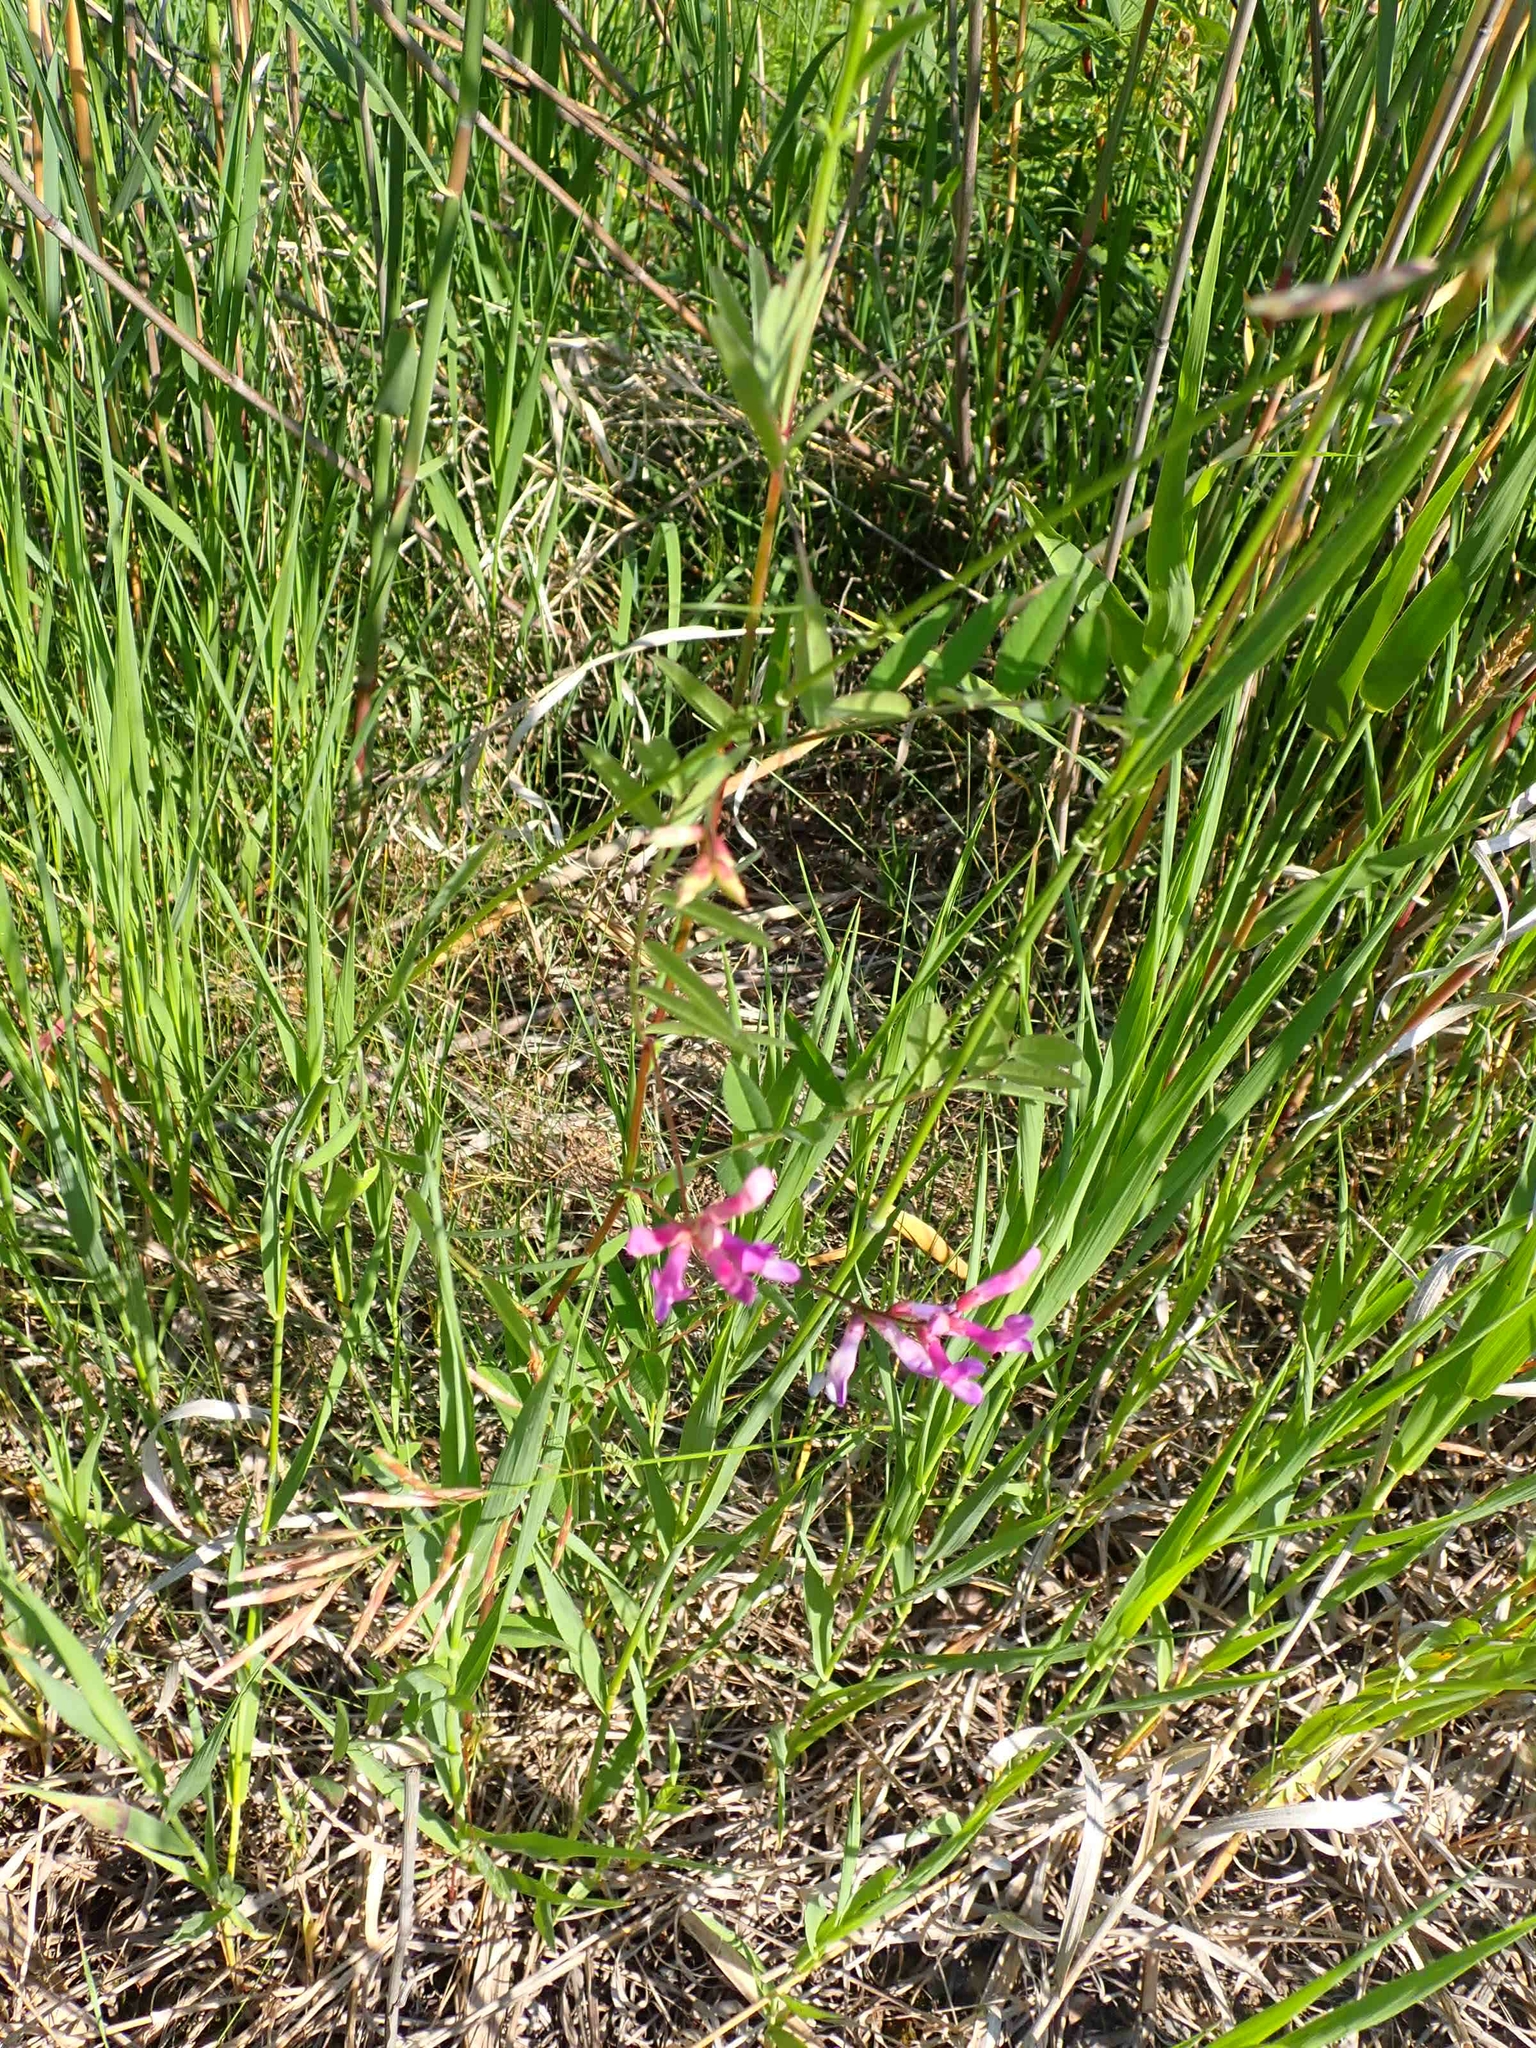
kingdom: Plantae
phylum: Tracheophyta
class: Magnoliopsida
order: Fabales
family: Fabaceae
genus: Vicia
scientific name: Vicia americana
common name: American vetch
